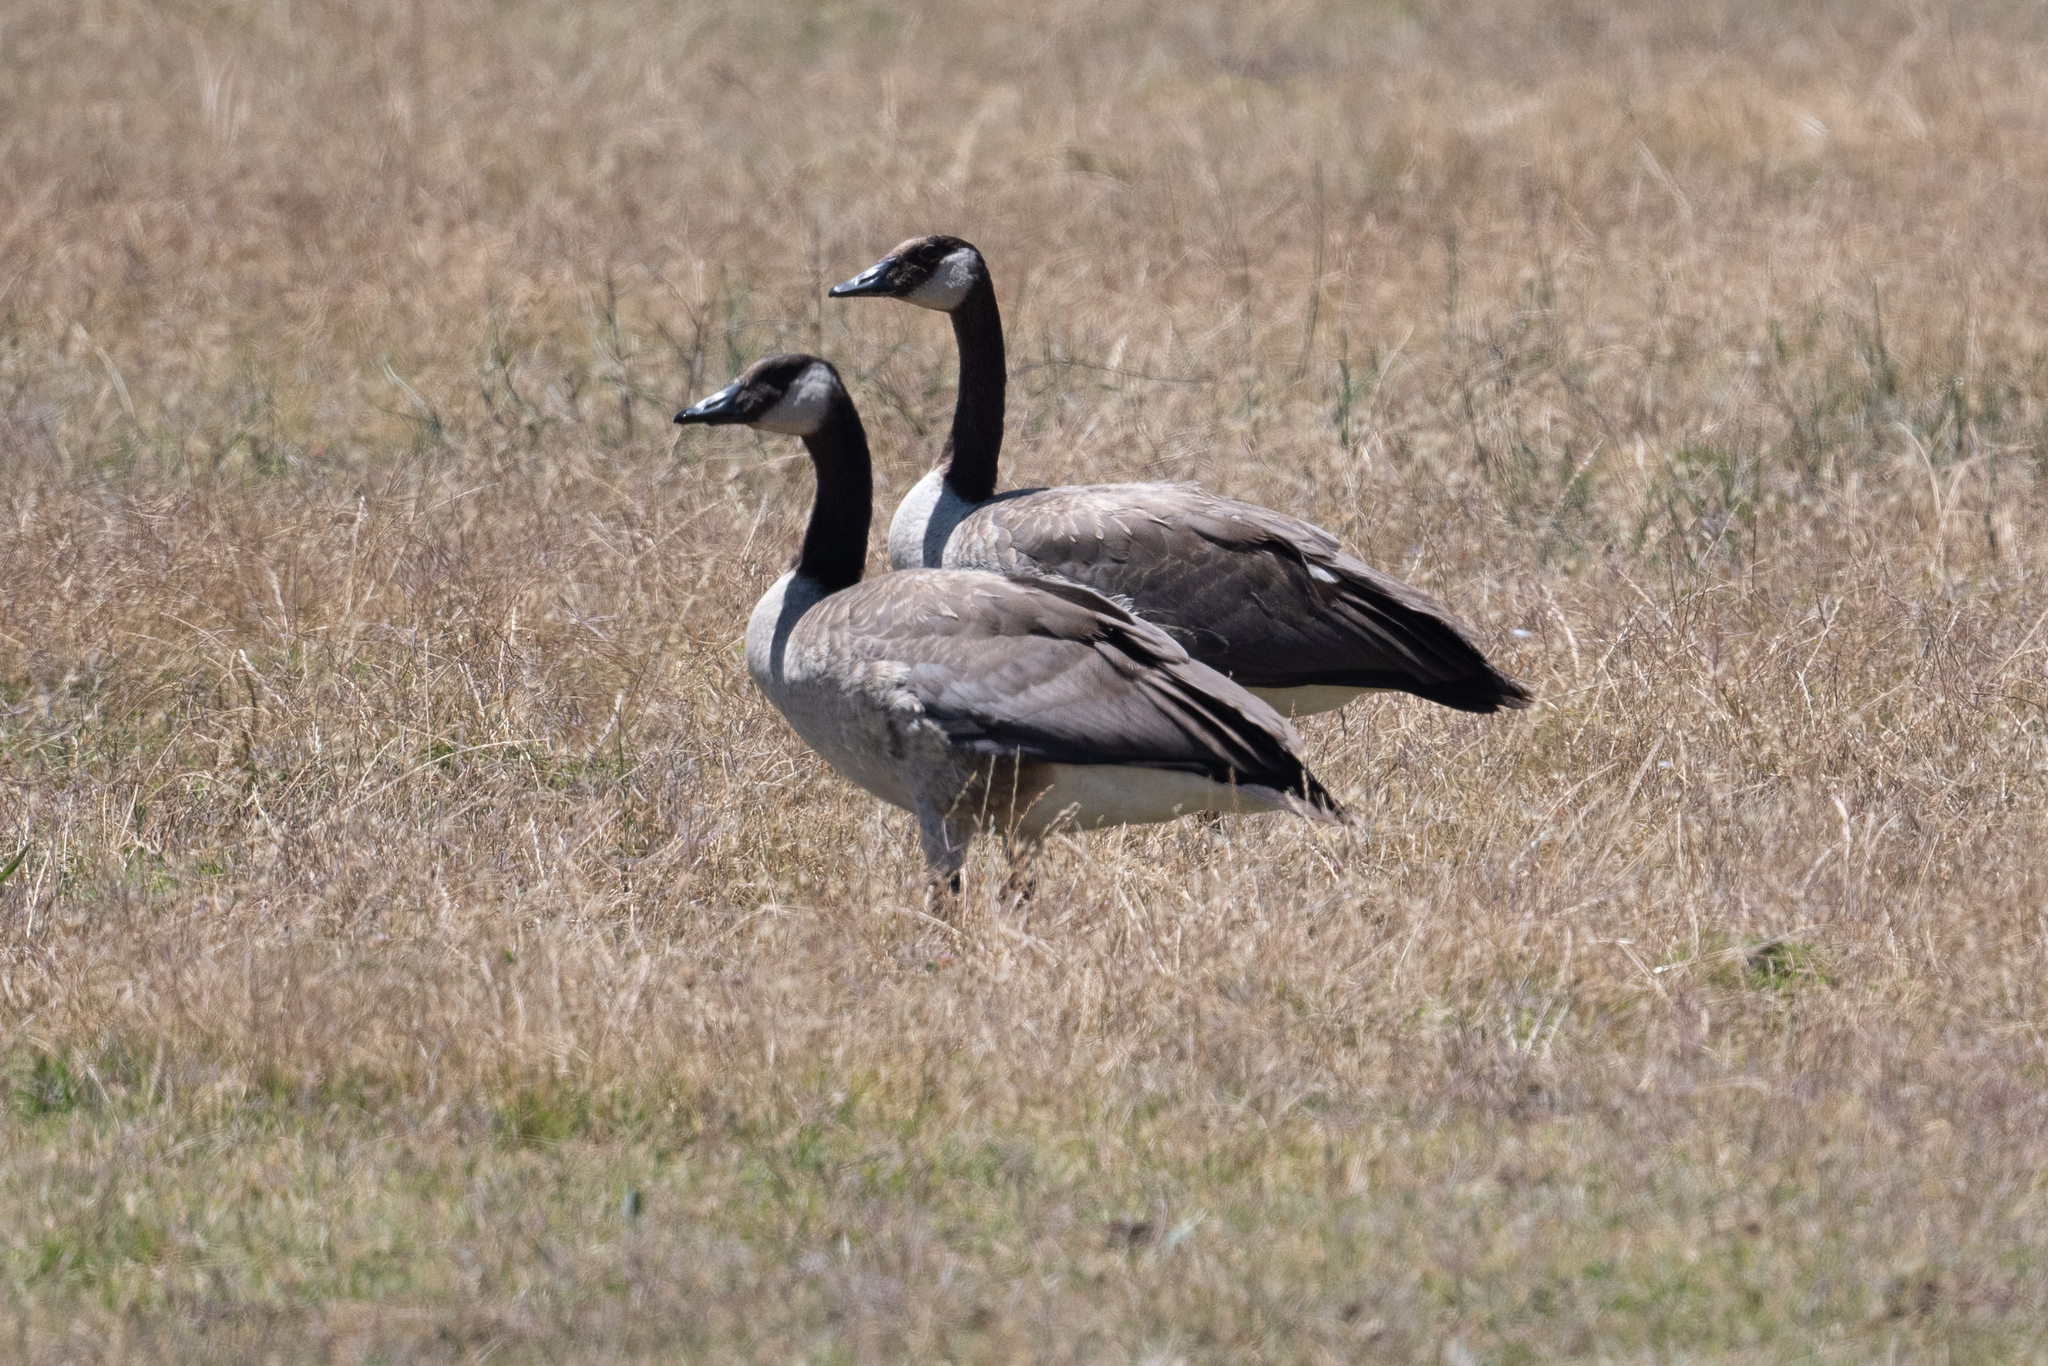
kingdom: Animalia
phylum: Chordata
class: Aves
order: Anseriformes
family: Anatidae
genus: Branta
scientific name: Branta canadensis
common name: Canada goose
